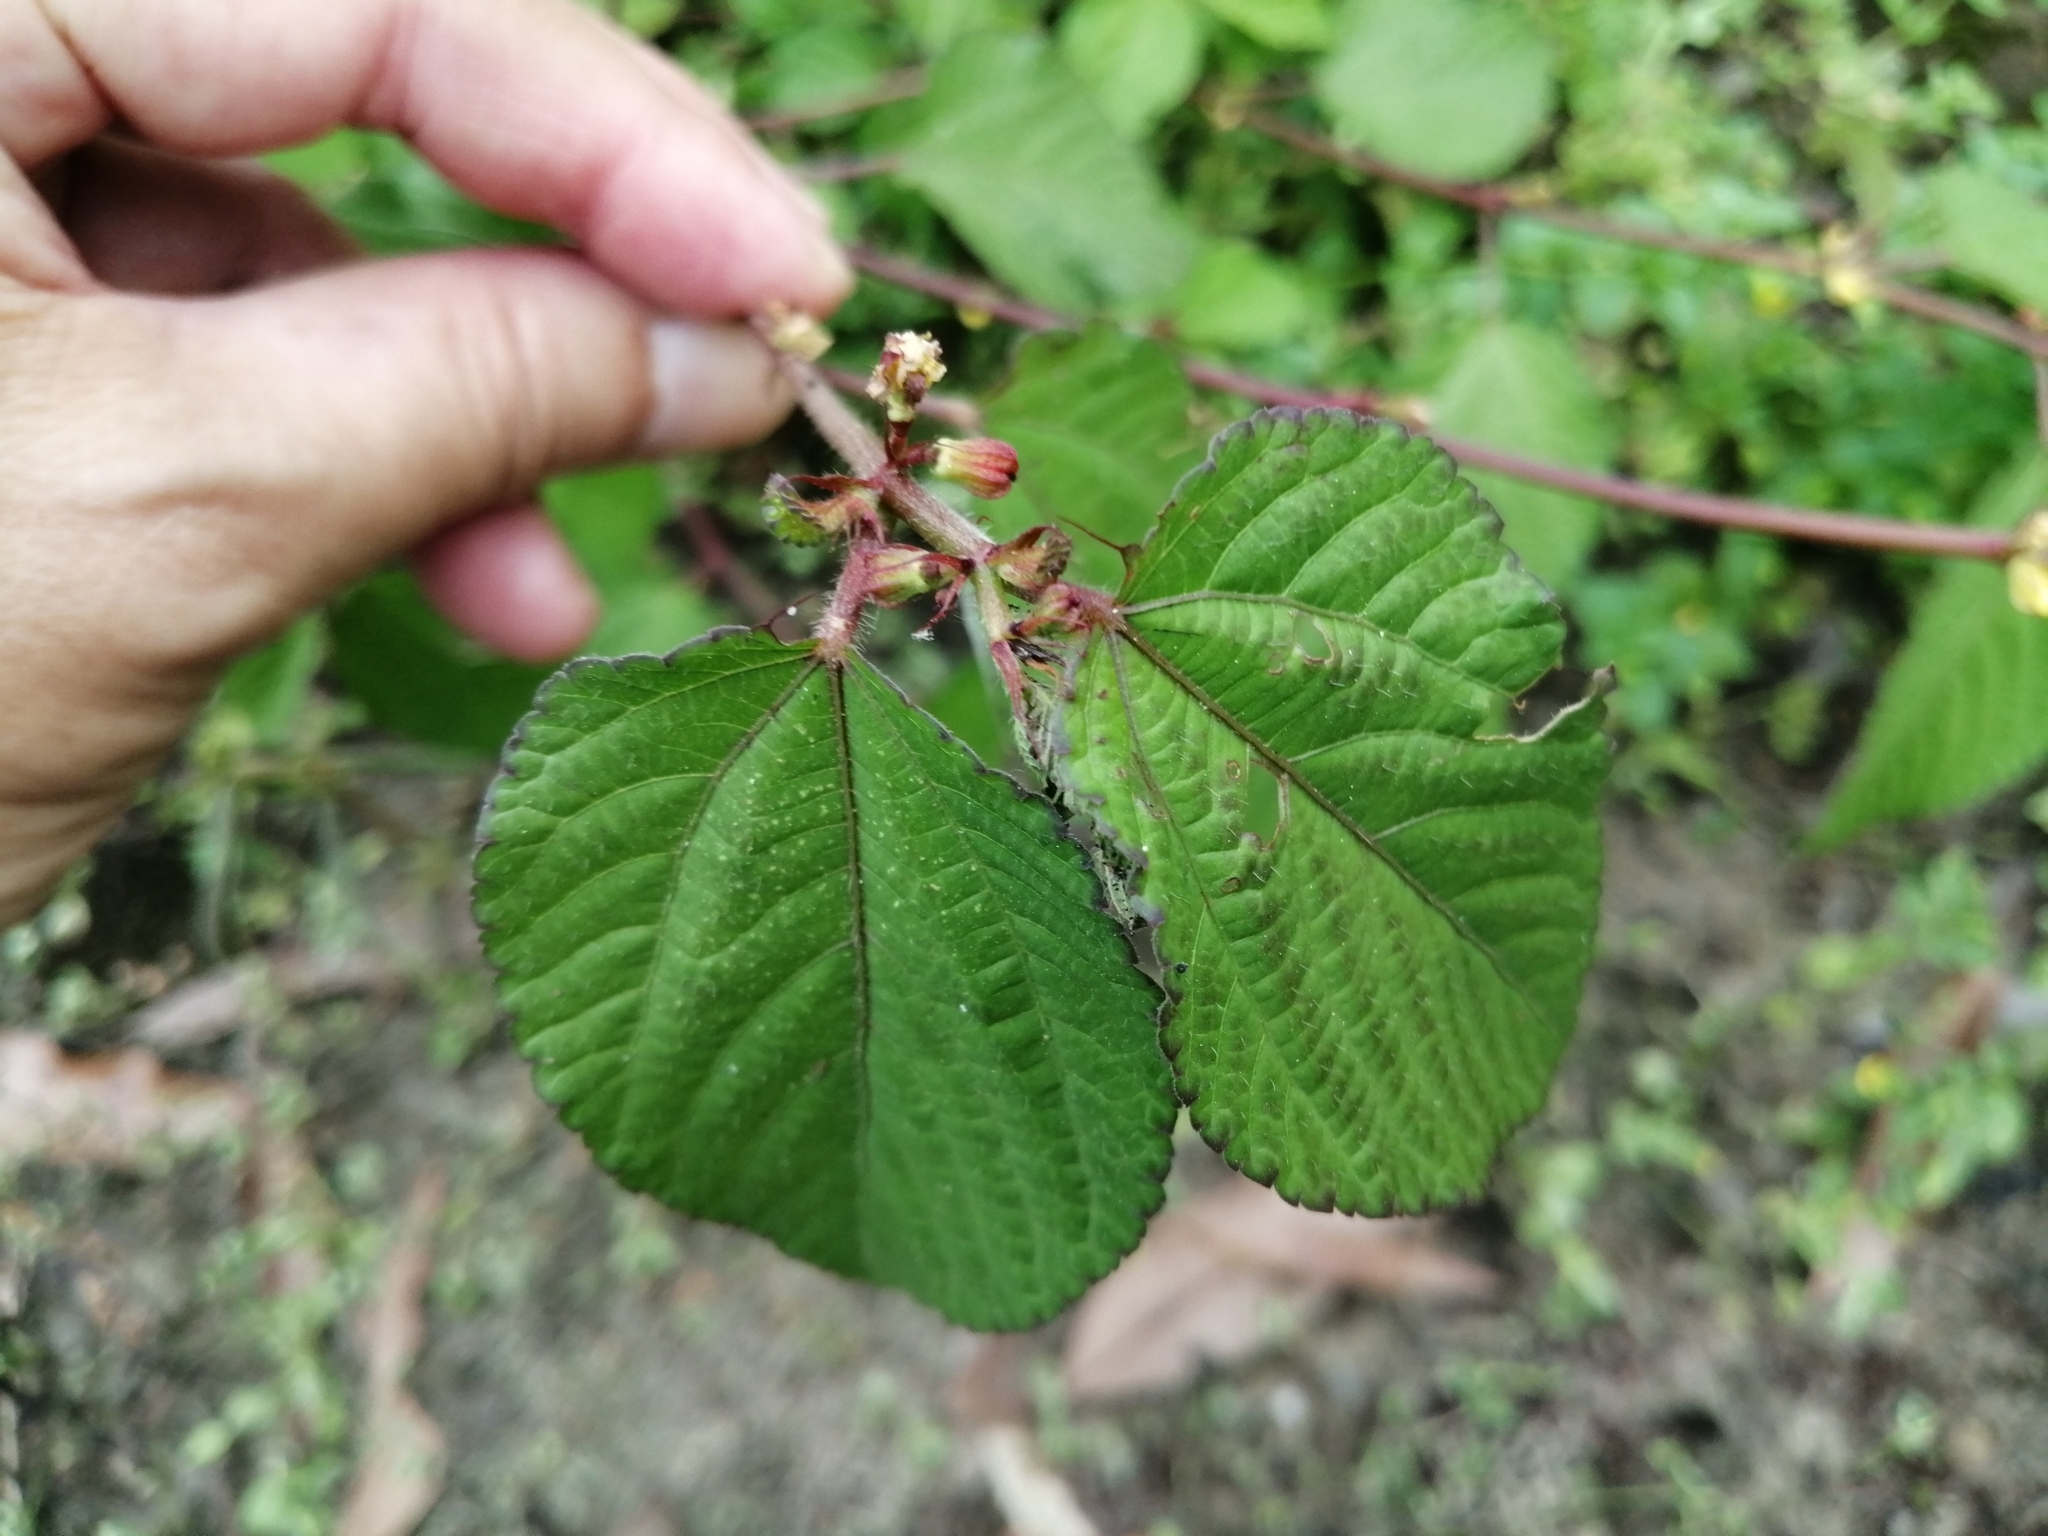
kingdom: Plantae
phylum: Tracheophyta
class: Magnoliopsida
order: Malvales
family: Malvaceae
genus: Corchorus
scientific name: Corchorus aestuans
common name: Jute
